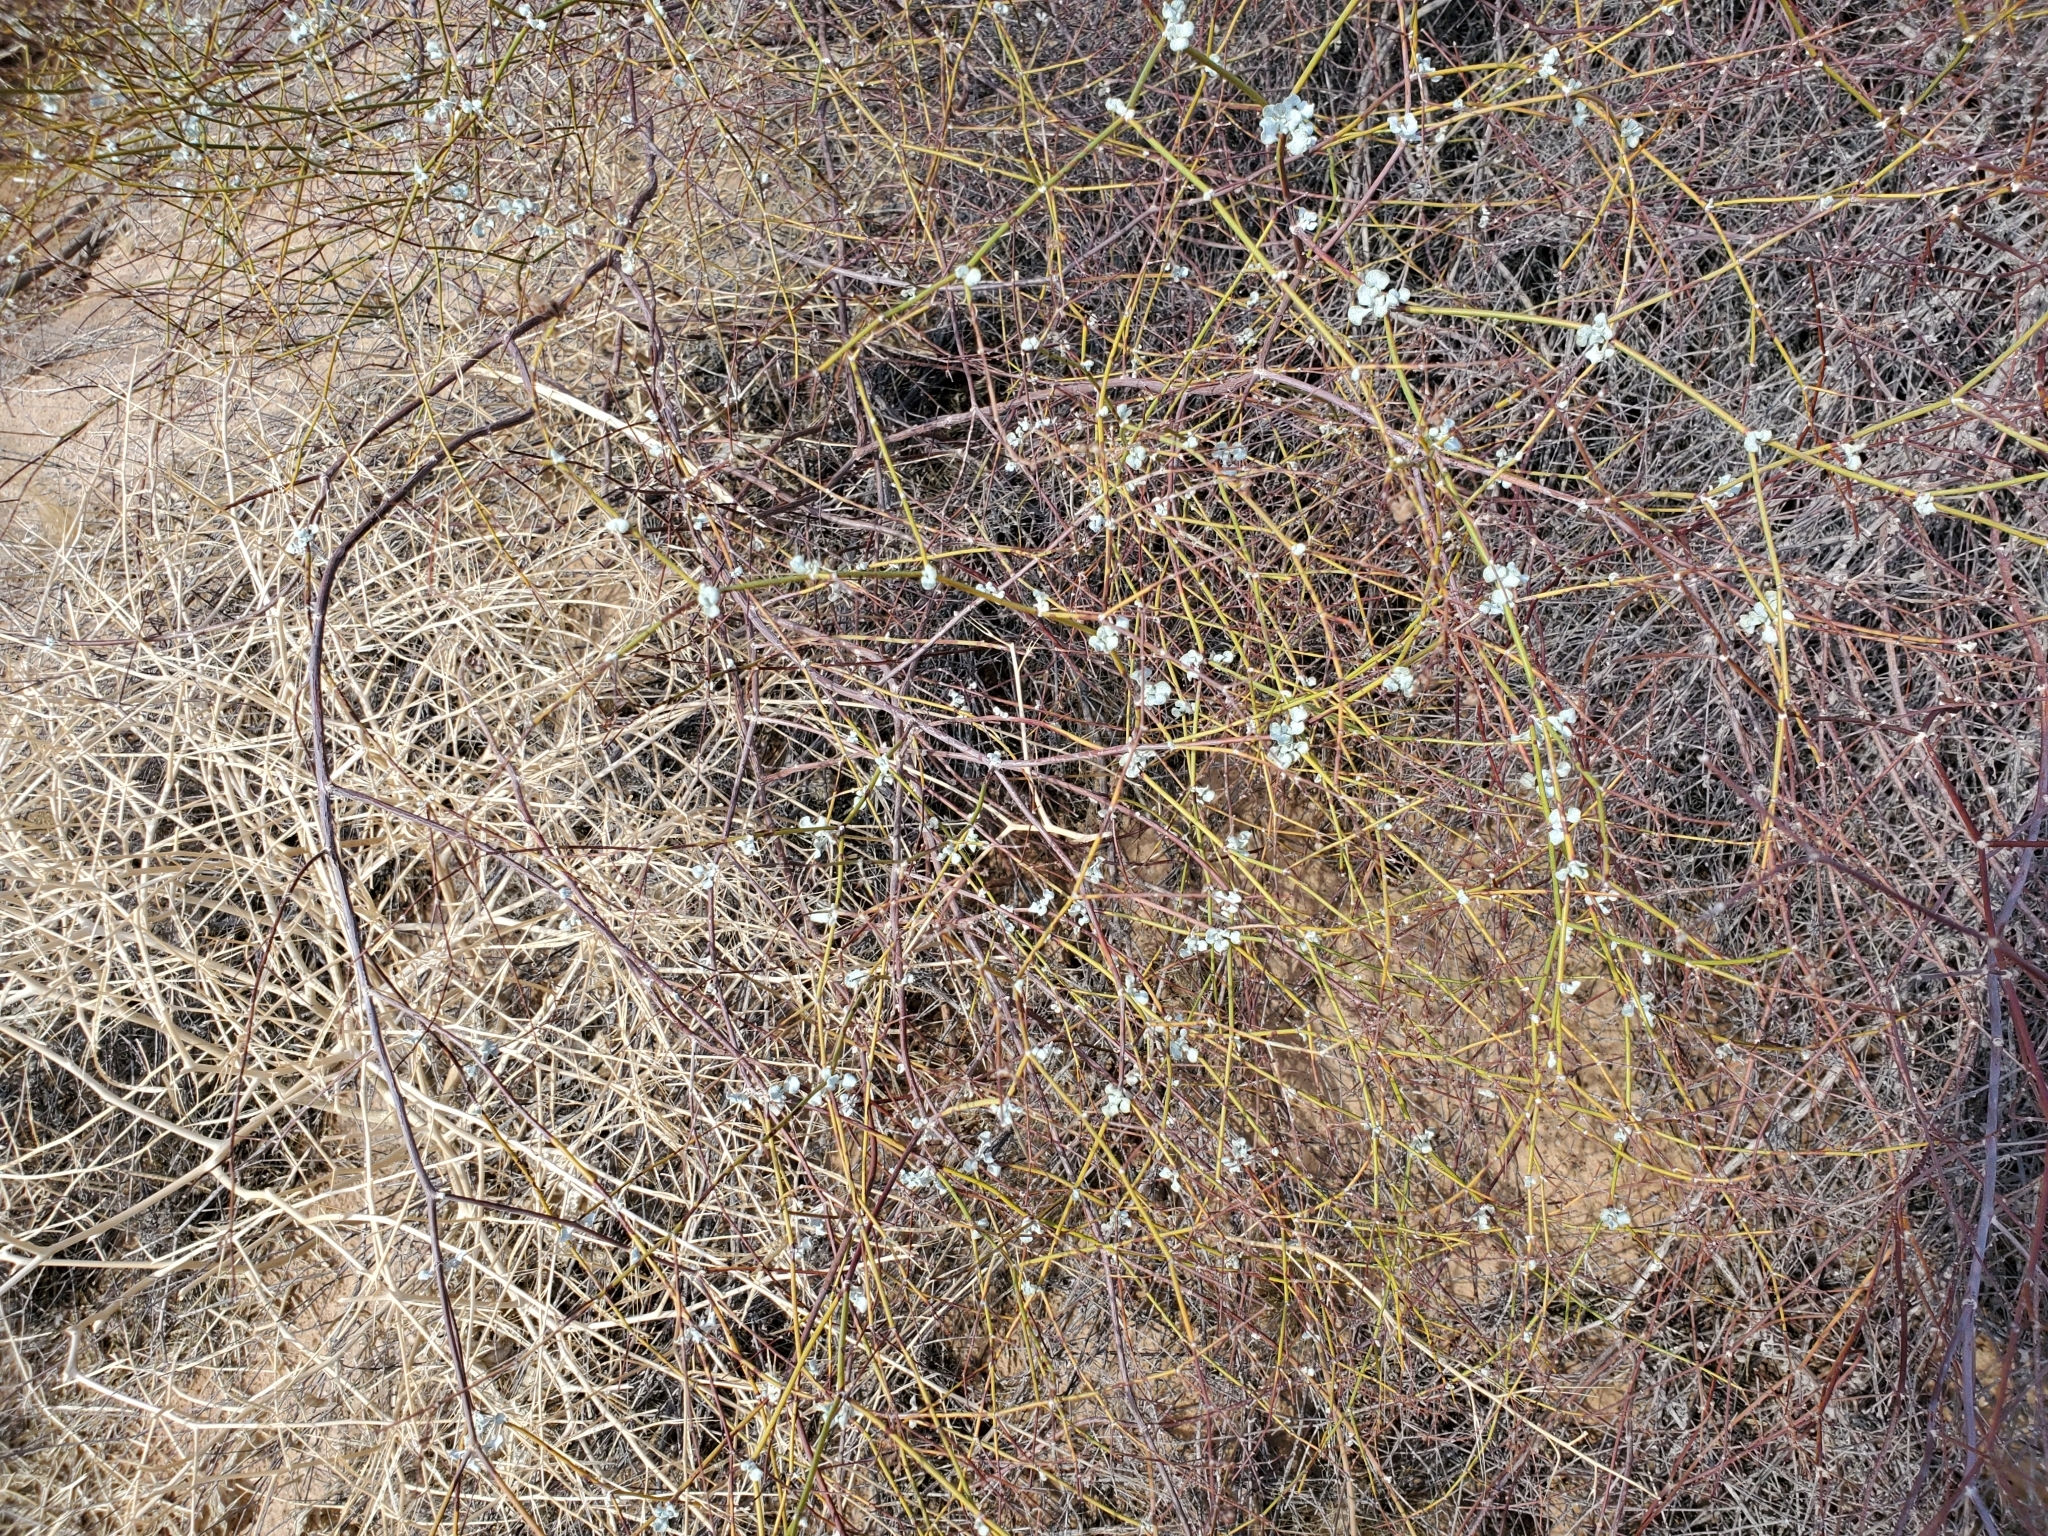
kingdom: Plantae
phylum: Tracheophyta
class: Magnoliopsida
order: Caryophyllales
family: Polygonaceae
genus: Eriogonum
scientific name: Eriogonum deserticola
